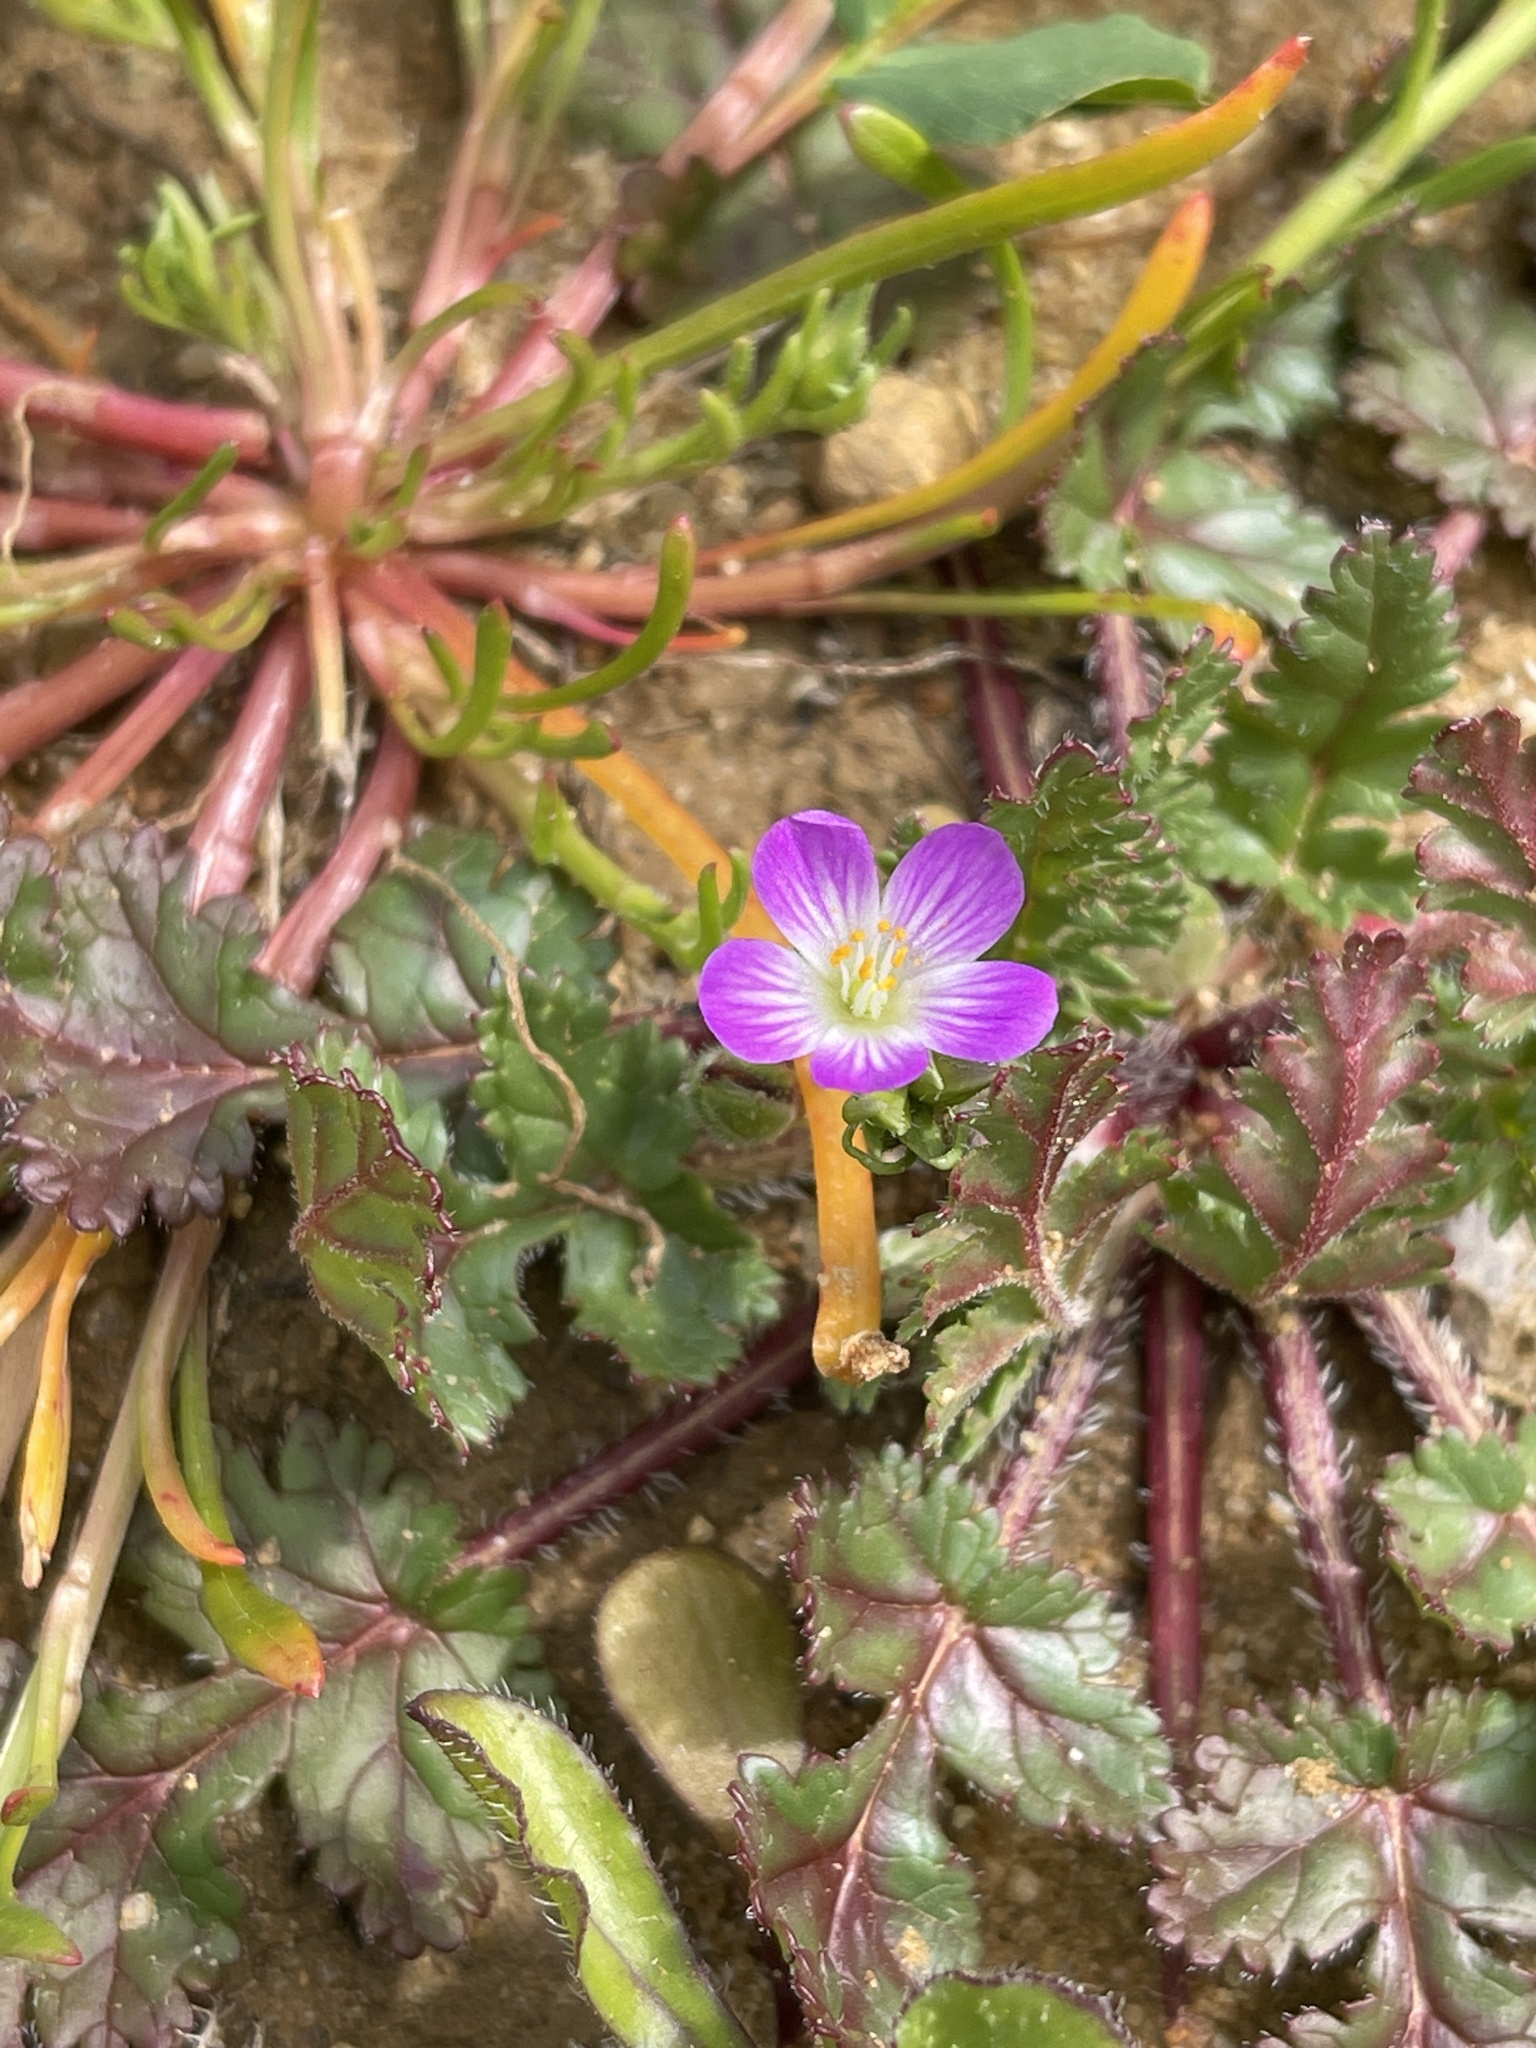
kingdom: Plantae
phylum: Tracheophyta
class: Magnoliopsida
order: Caryophyllales
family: Montiaceae
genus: Calandrinia
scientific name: Calandrinia menziesii
